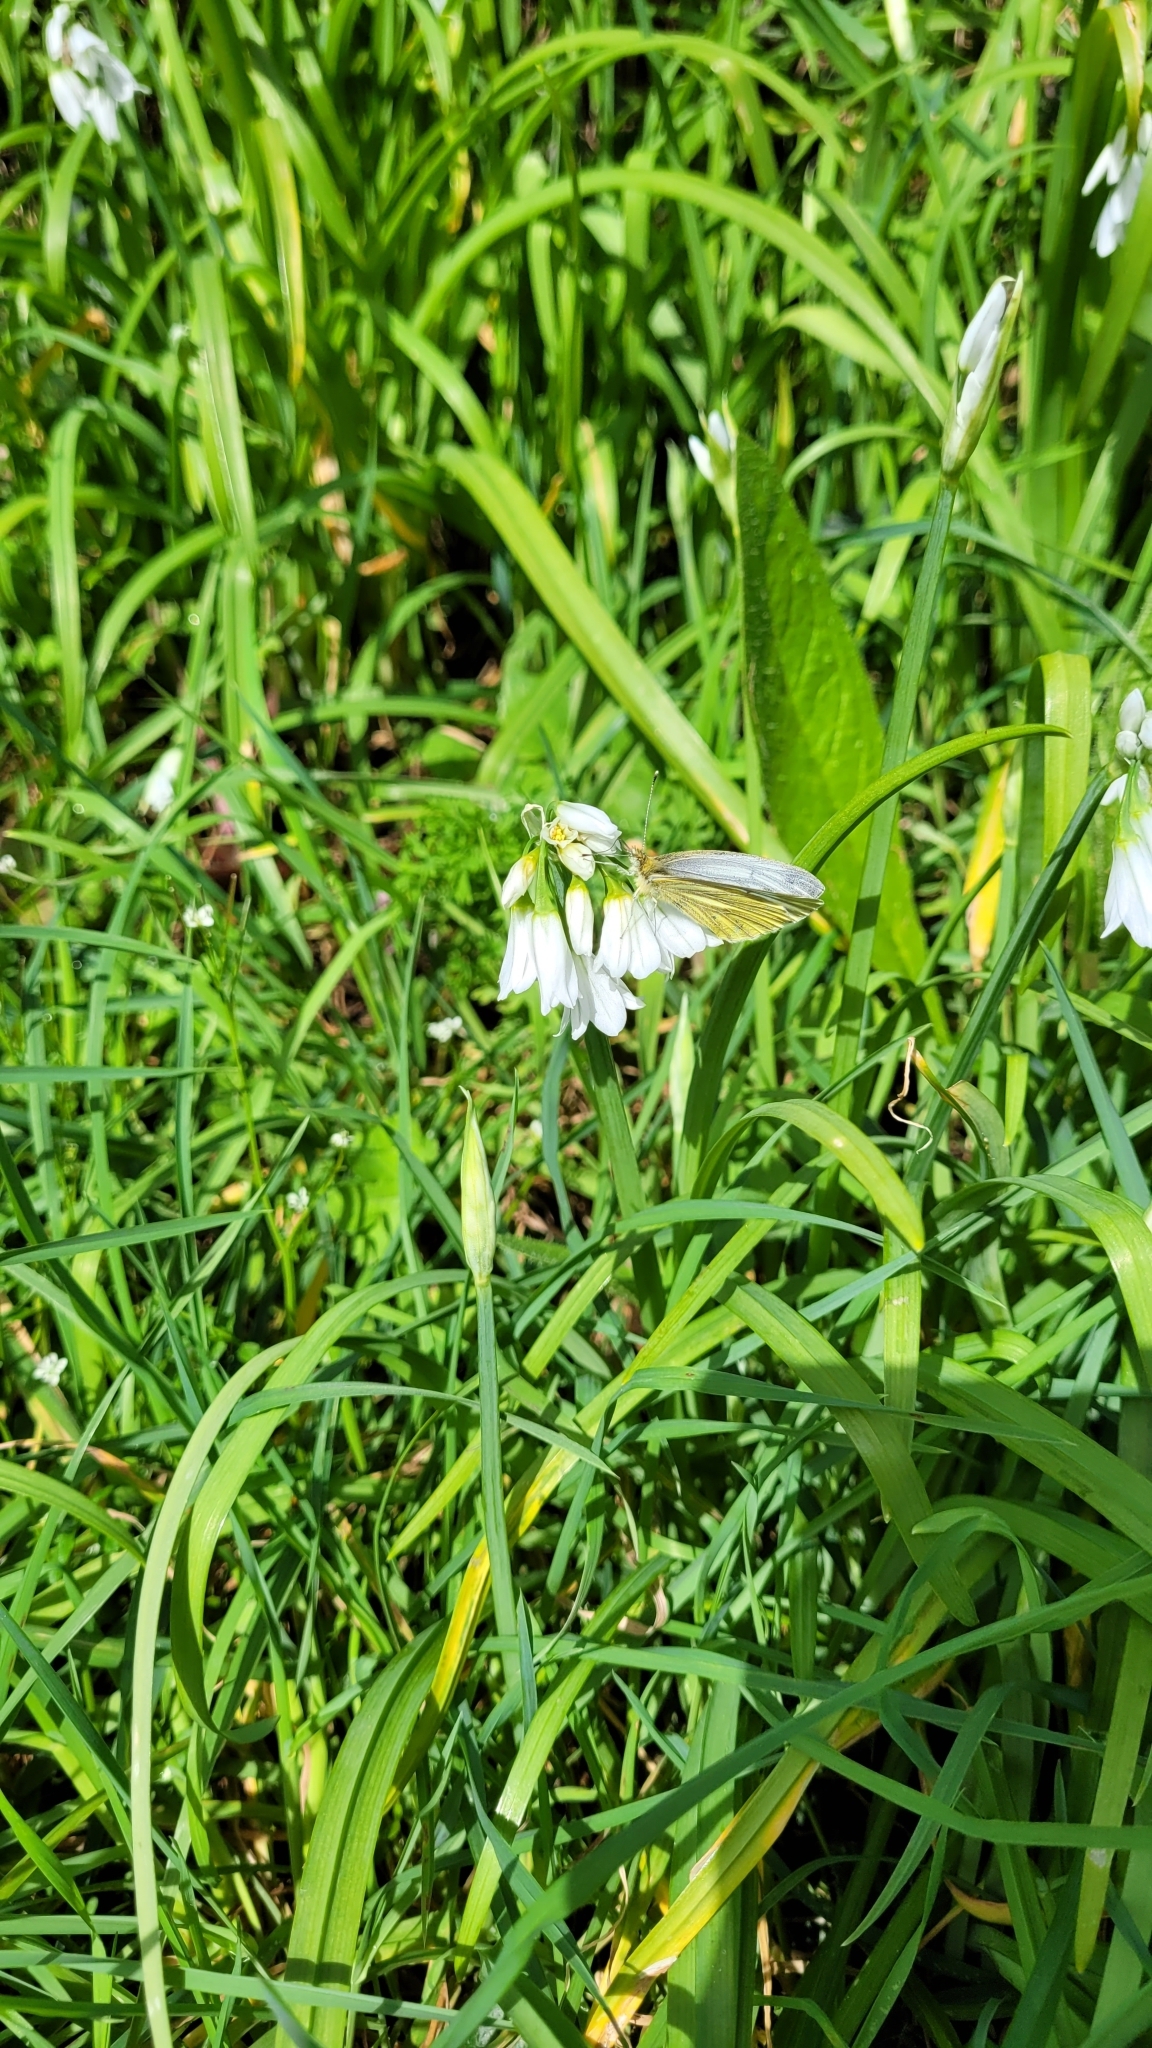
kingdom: Animalia
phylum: Arthropoda
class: Insecta
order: Lepidoptera
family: Pieridae
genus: Pieris
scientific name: Pieris napi
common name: Green-veined white
